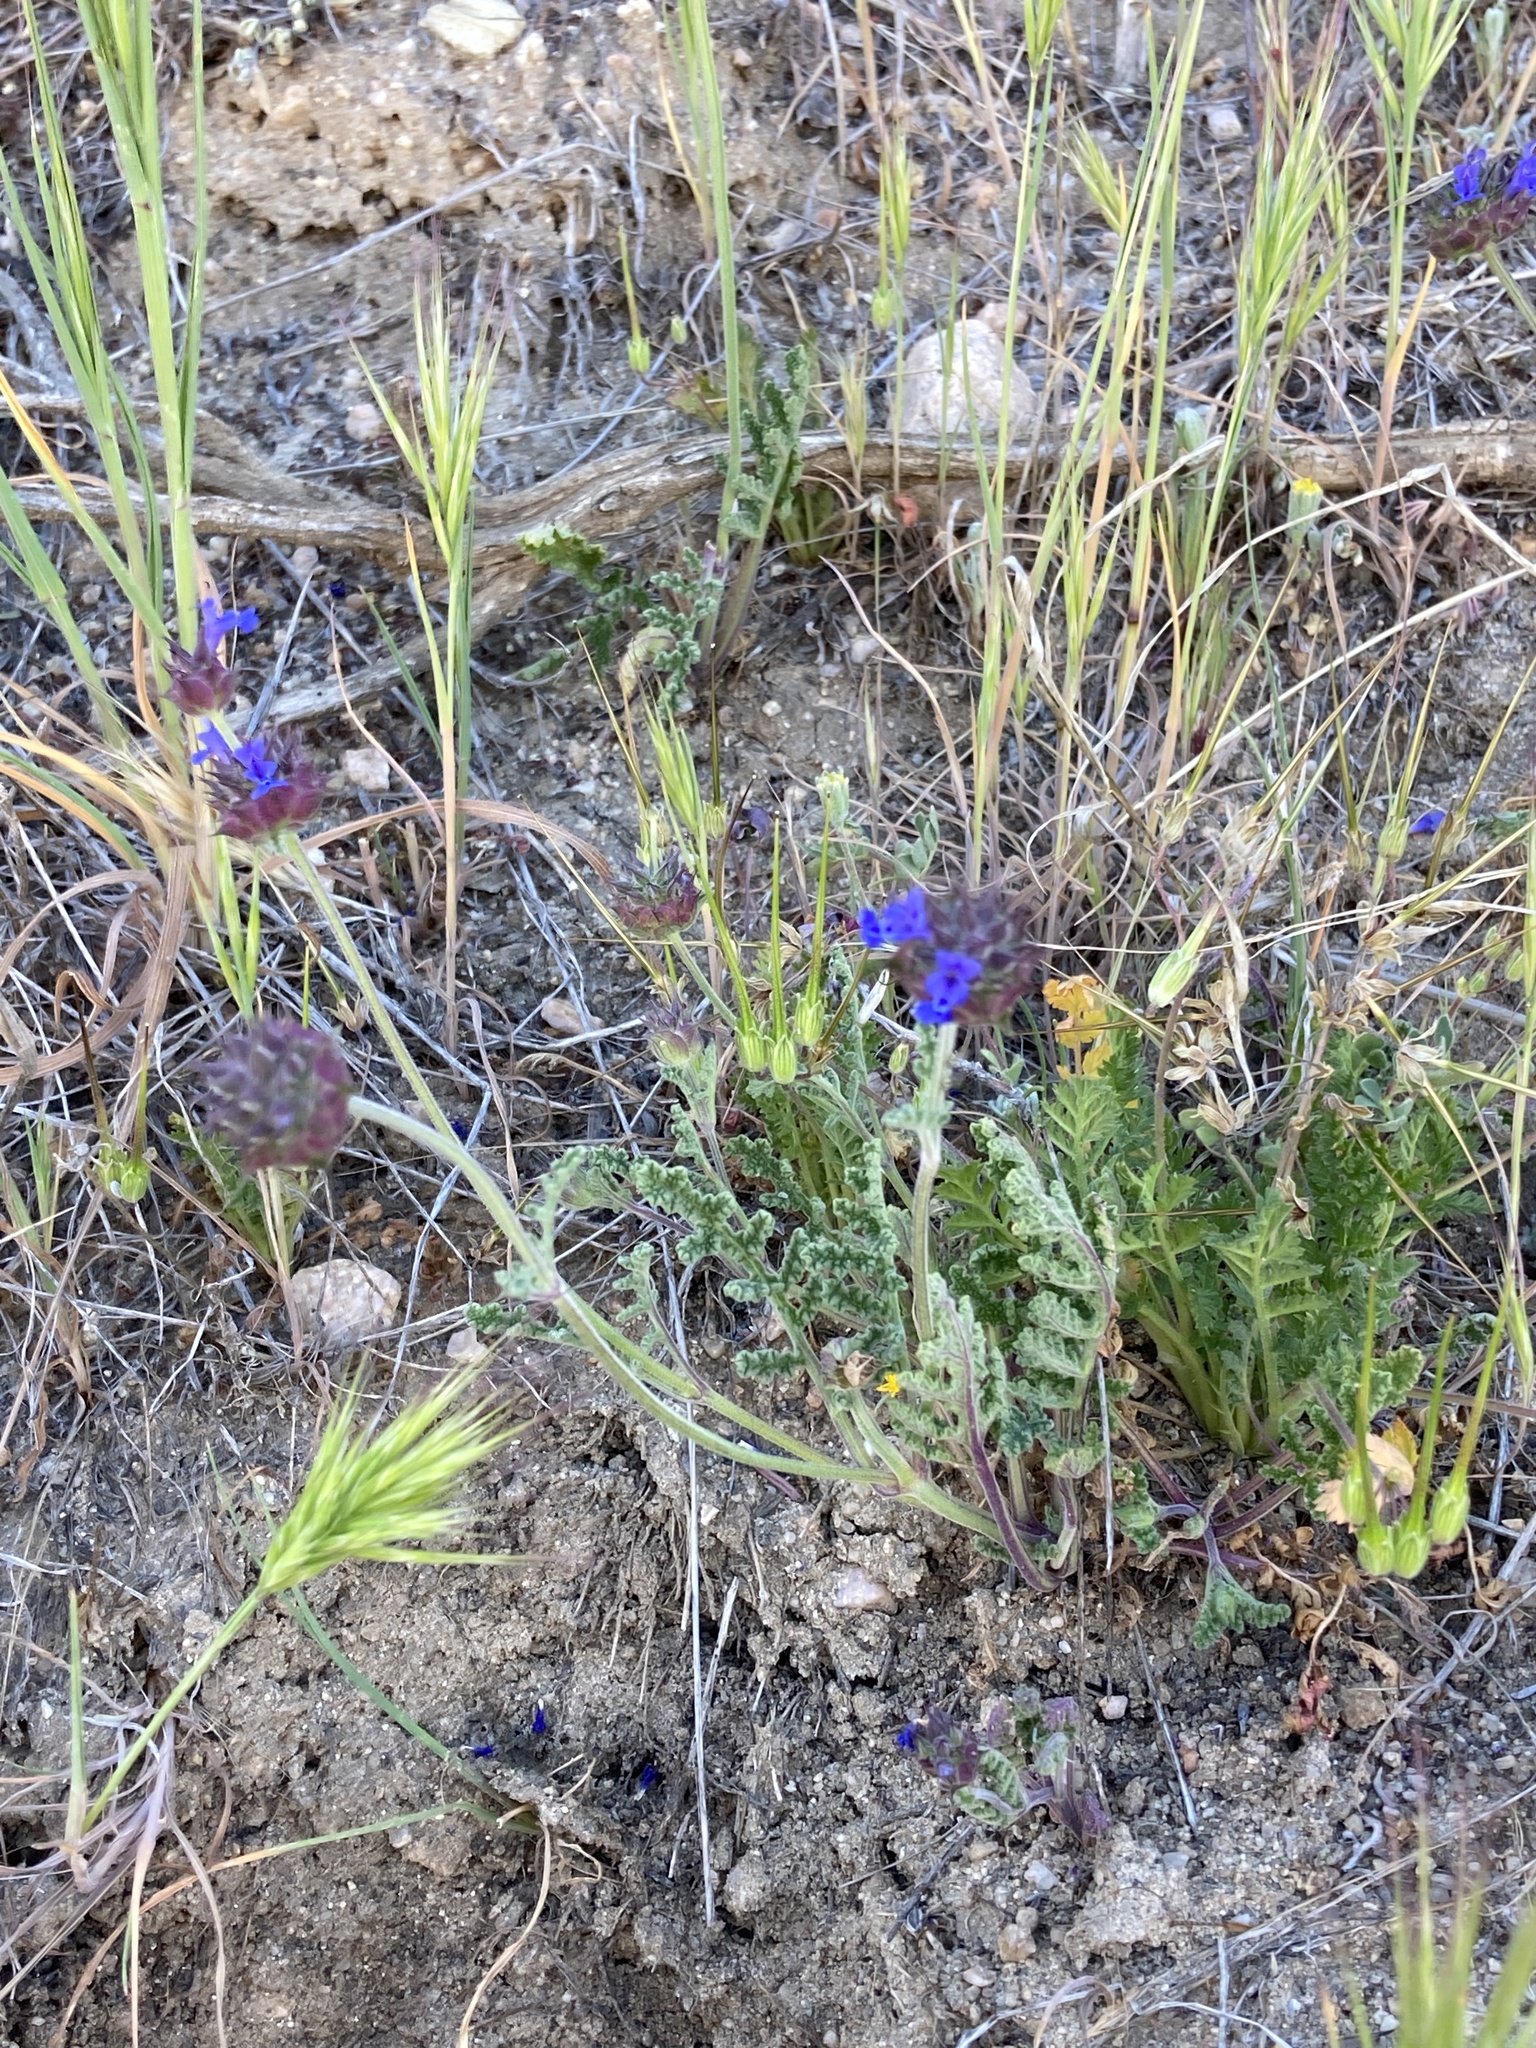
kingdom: Plantae
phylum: Tracheophyta
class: Magnoliopsida
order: Lamiales
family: Lamiaceae
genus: Salvia
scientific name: Salvia columbariae
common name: Chia
